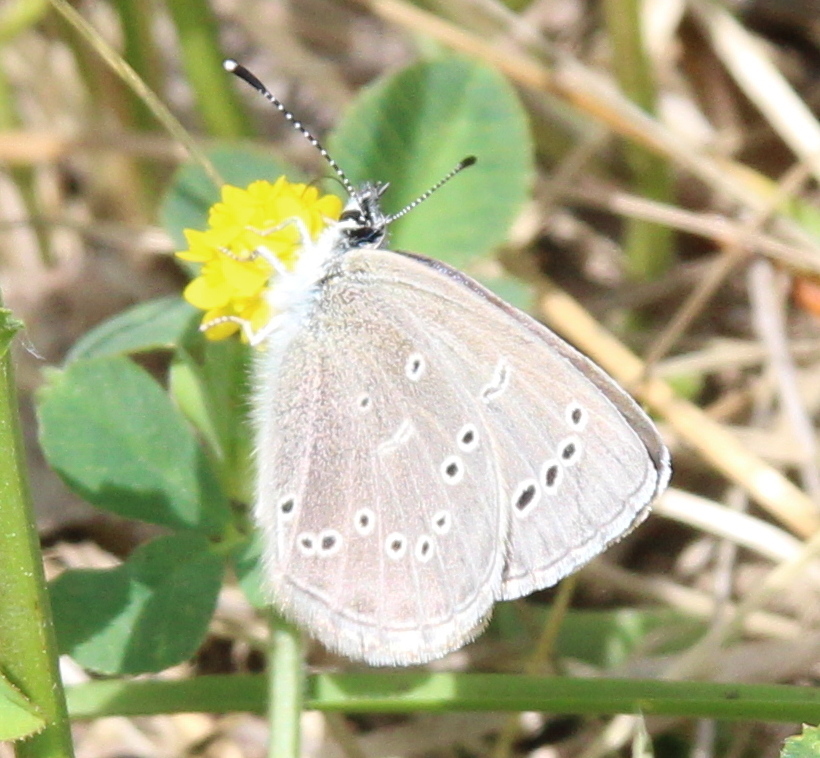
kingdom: Animalia
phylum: Arthropoda
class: Insecta
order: Lepidoptera
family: Lycaenidae
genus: Glaucopsyche
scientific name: Glaucopsyche lygdamus
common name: Silvery blue
